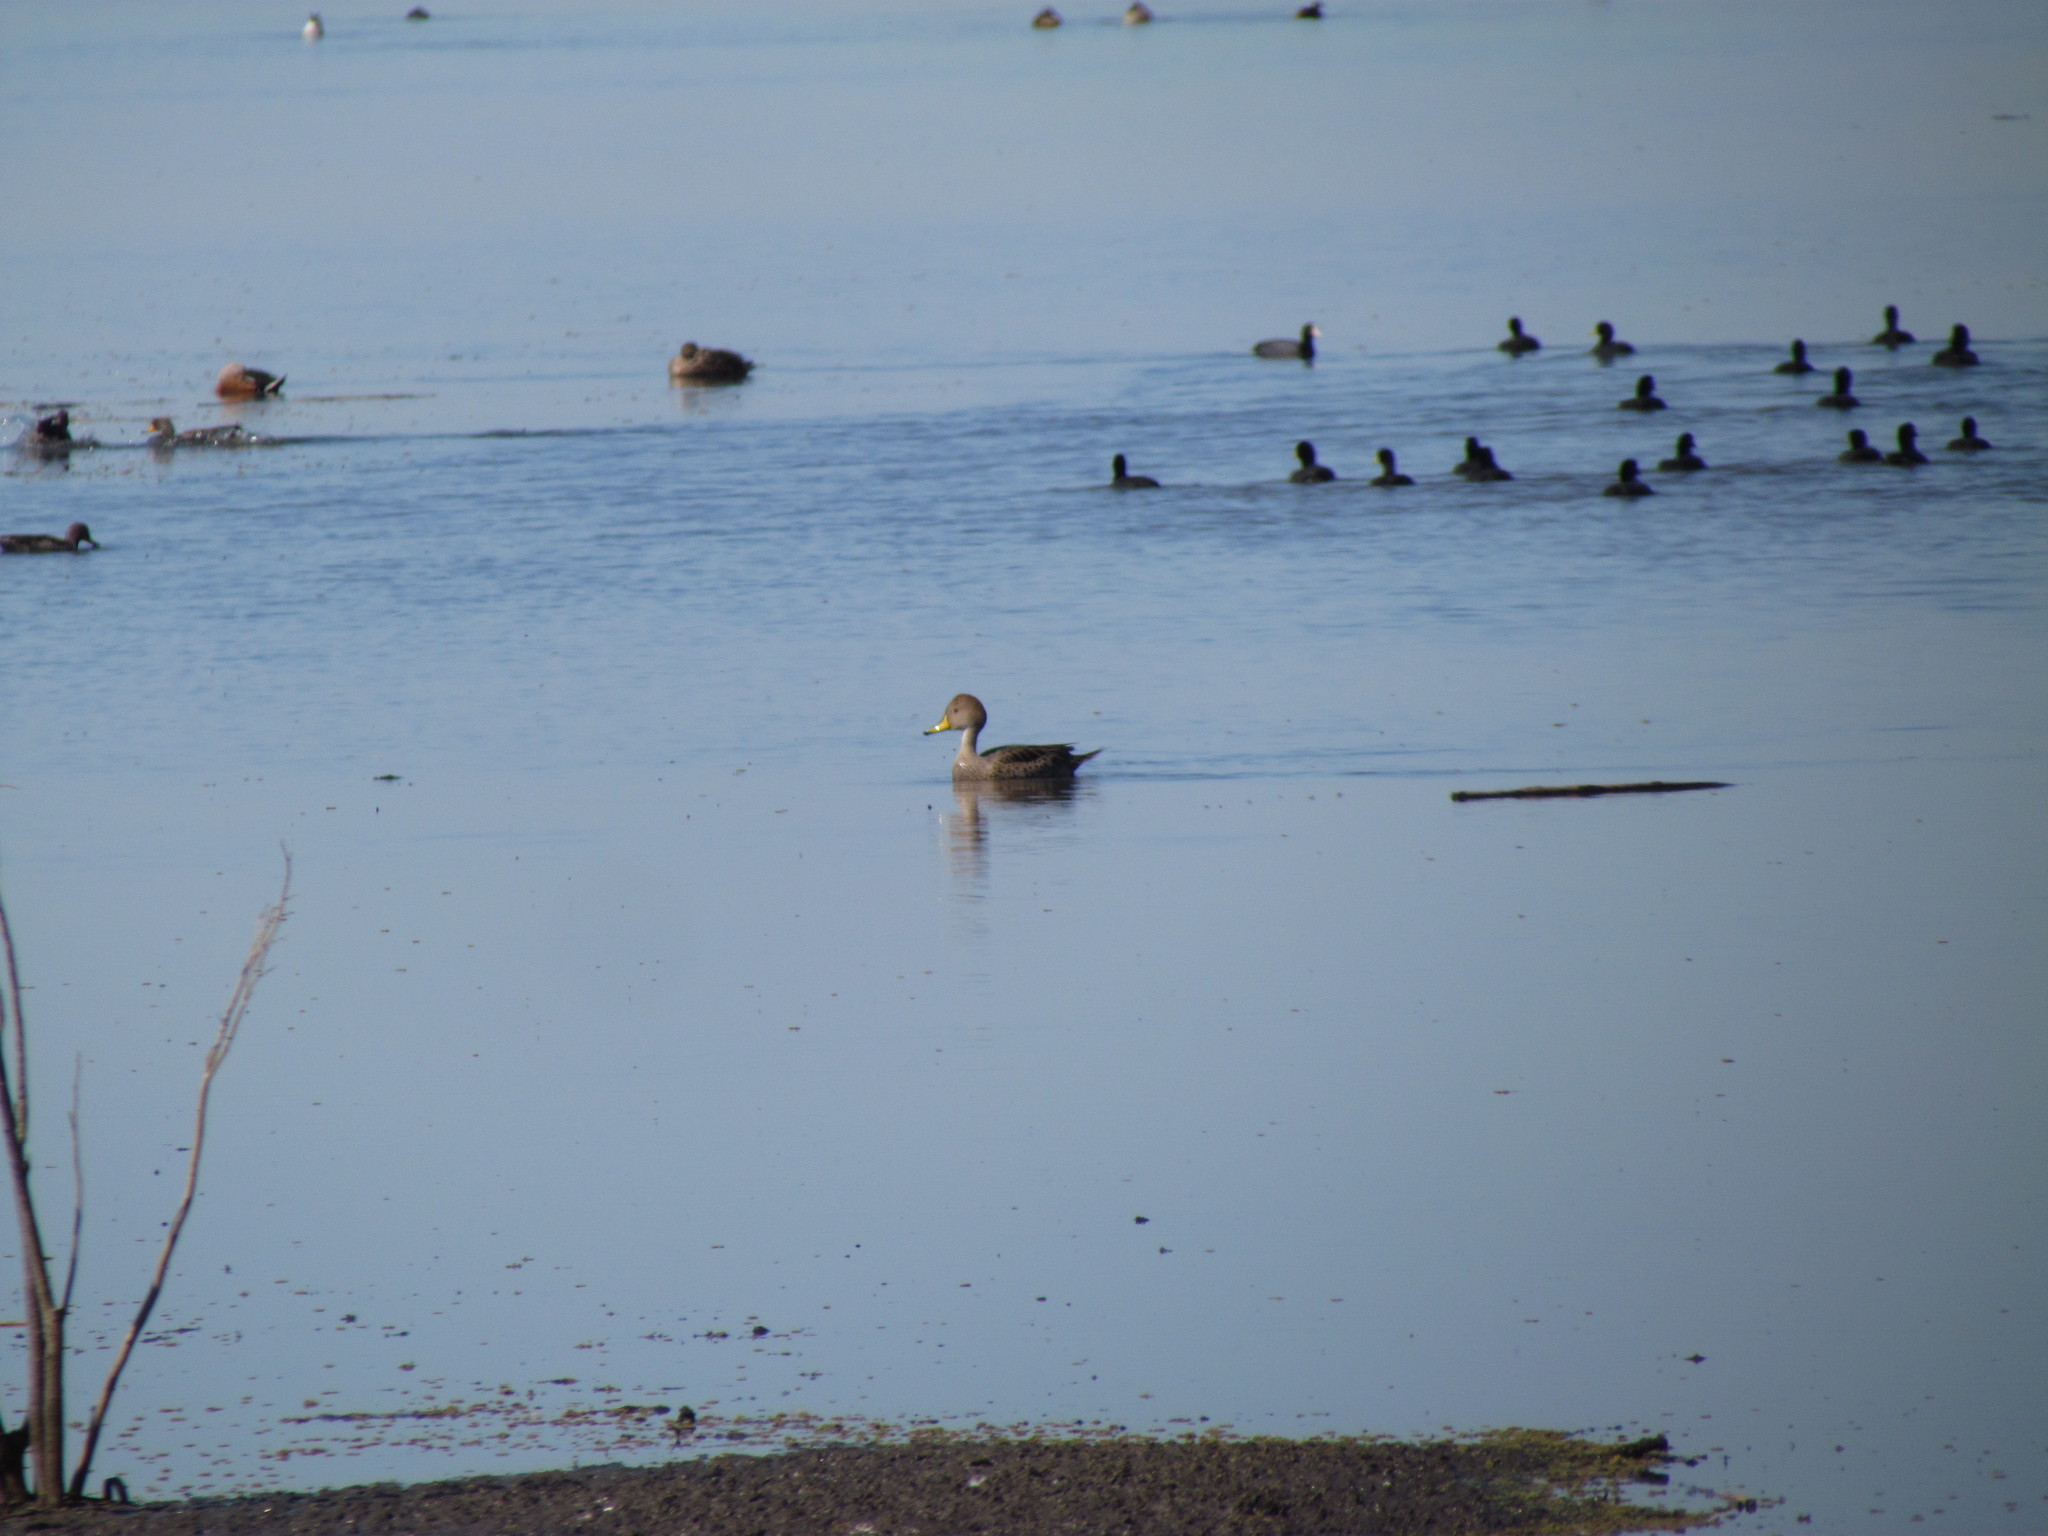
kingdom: Animalia
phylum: Chordata
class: Aves
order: Anseriformes
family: Anatidae
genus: Anas
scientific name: Anas georgica
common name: Yellow-billed pintail
